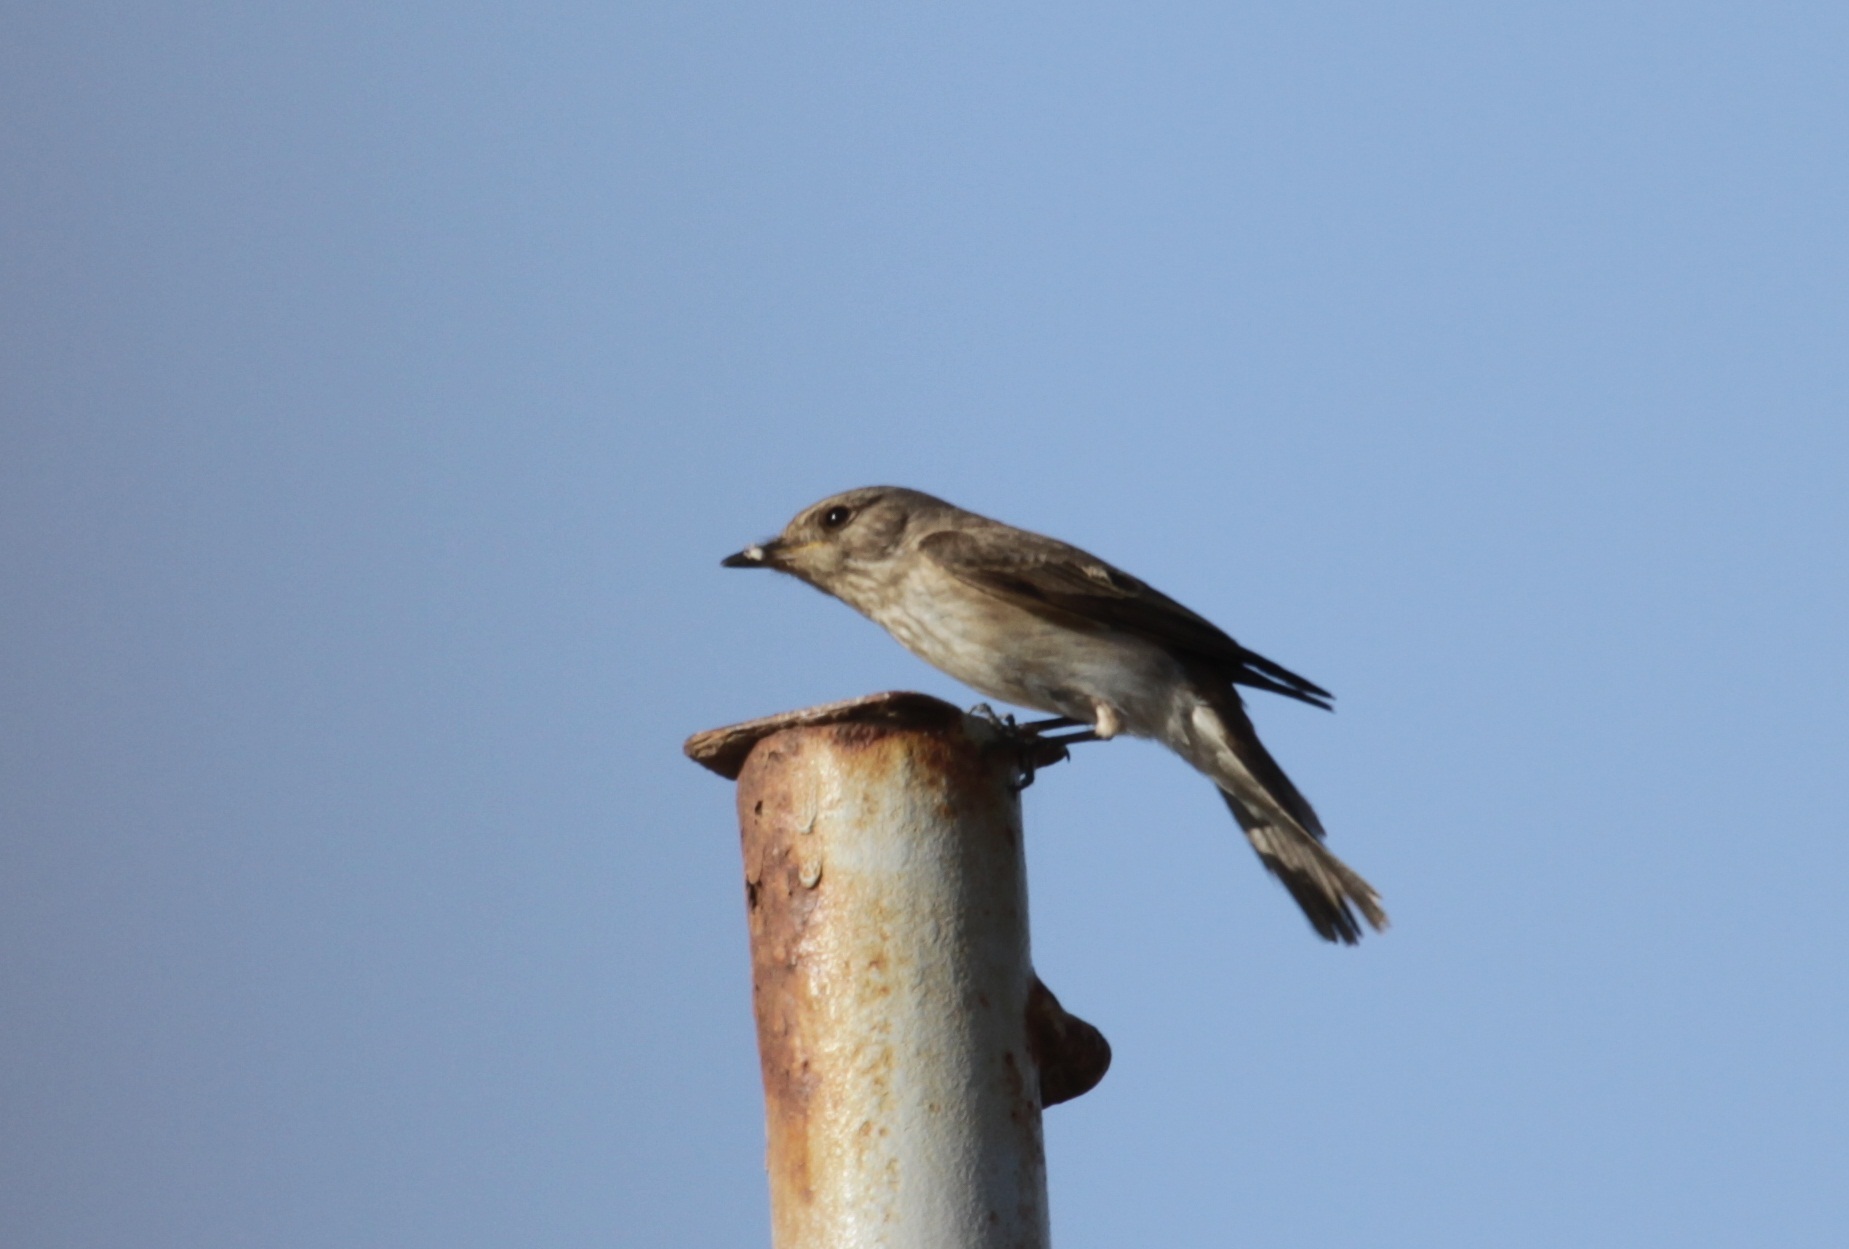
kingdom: Animalia
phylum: Chordata
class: Aves
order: Passeriformes
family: Muscicapidae
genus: Muscicapa
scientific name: Muscicapa striata
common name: Spotted flycatcher
